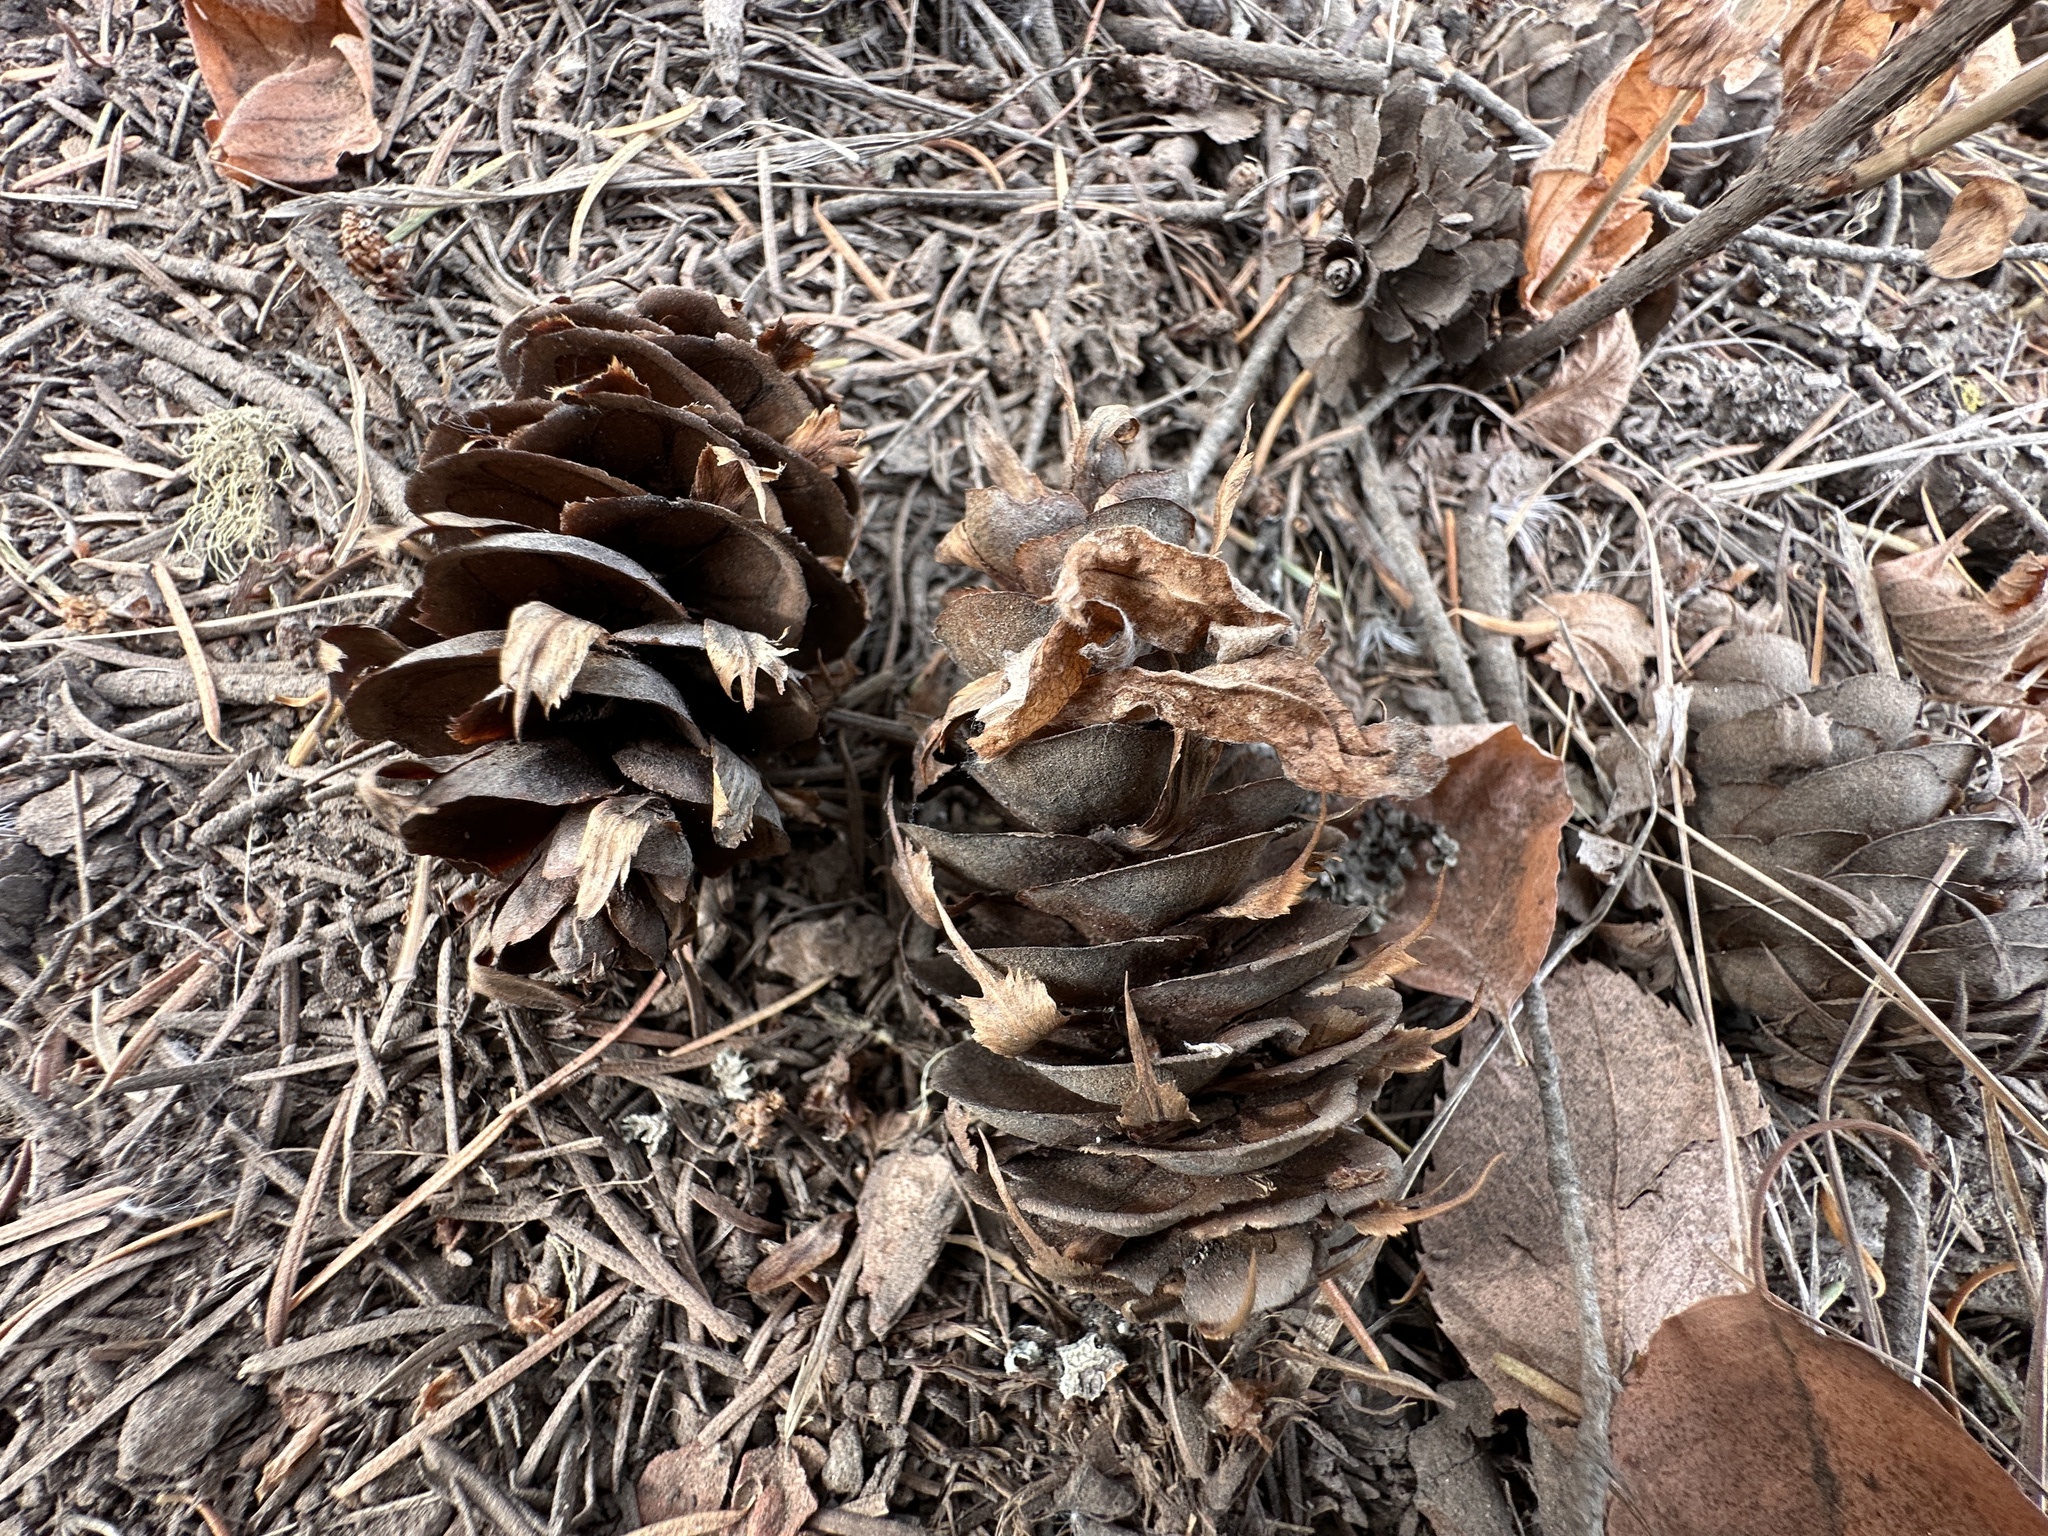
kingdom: Plantae
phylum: Tracheophyta
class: Pinopsida
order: Pinales
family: Pinaceae
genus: Pseudotsuga
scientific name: Pseudotsuga menziesii
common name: Douglas fir
